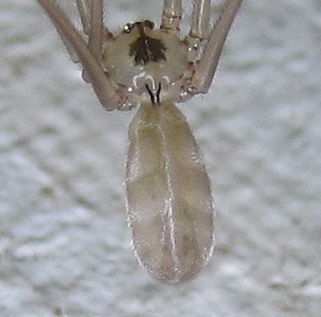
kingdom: Animalia
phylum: Arthropoda
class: Arachnida
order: Araneae
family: Pholcidae
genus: Pholcus
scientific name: Pholcus phalangioides
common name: Longbodied cellar spider
